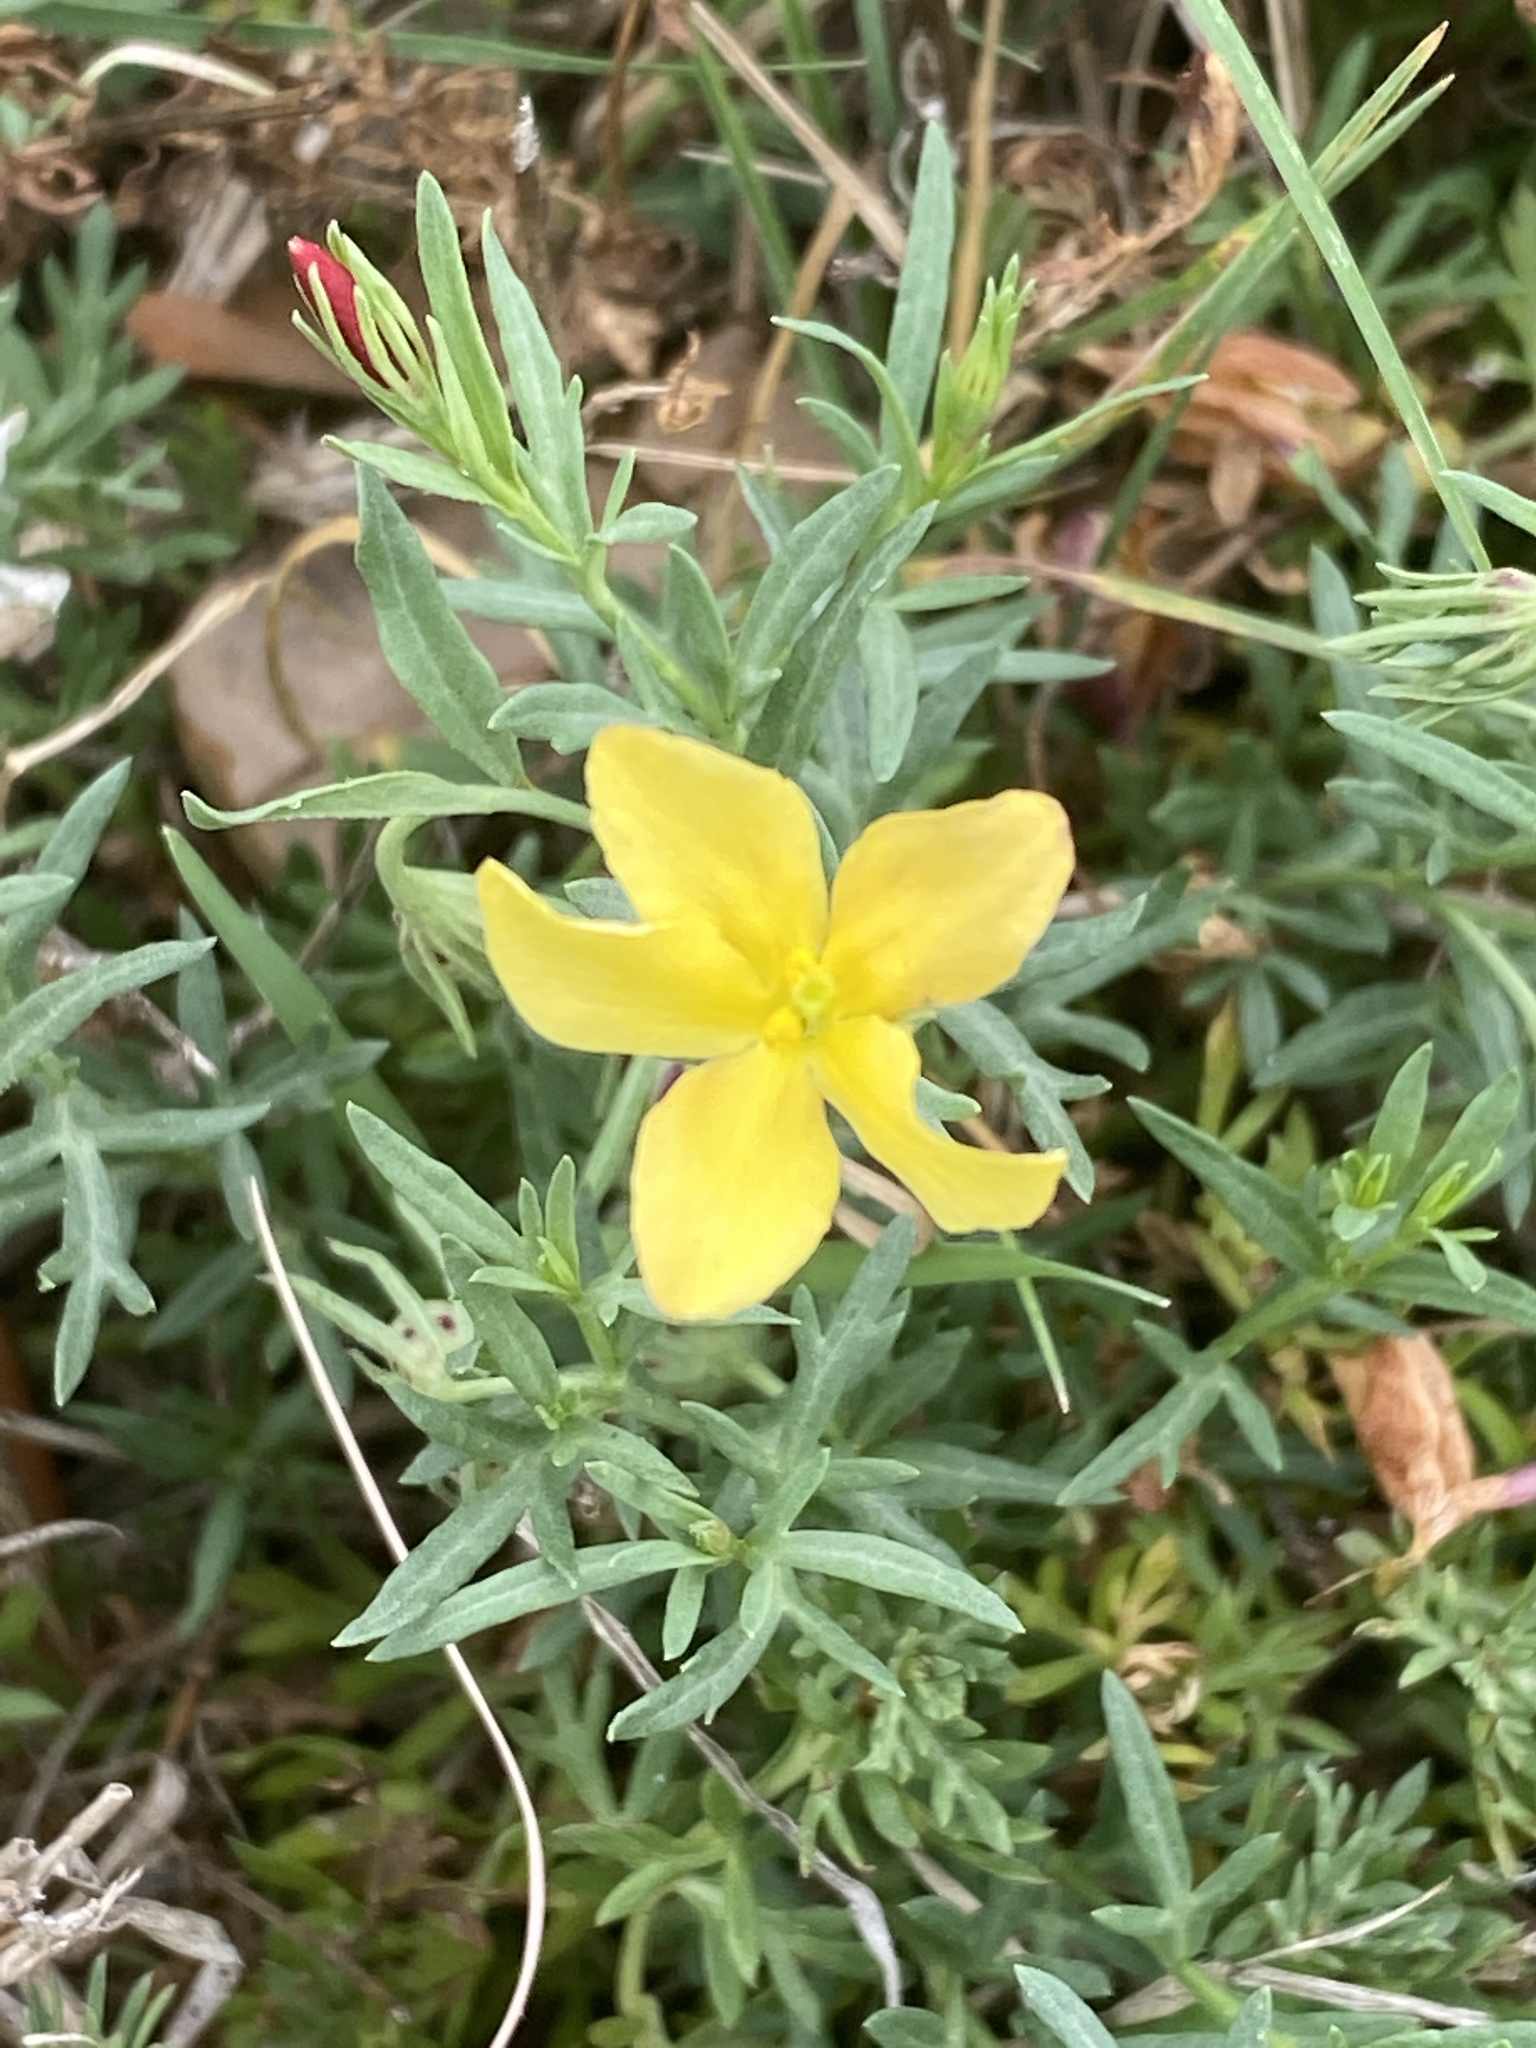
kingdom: Plantae
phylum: Tracheophyta
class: Magnoliopsida
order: Lamiales
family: Oleaceae
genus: Menodora
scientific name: Menodora heterophylla
